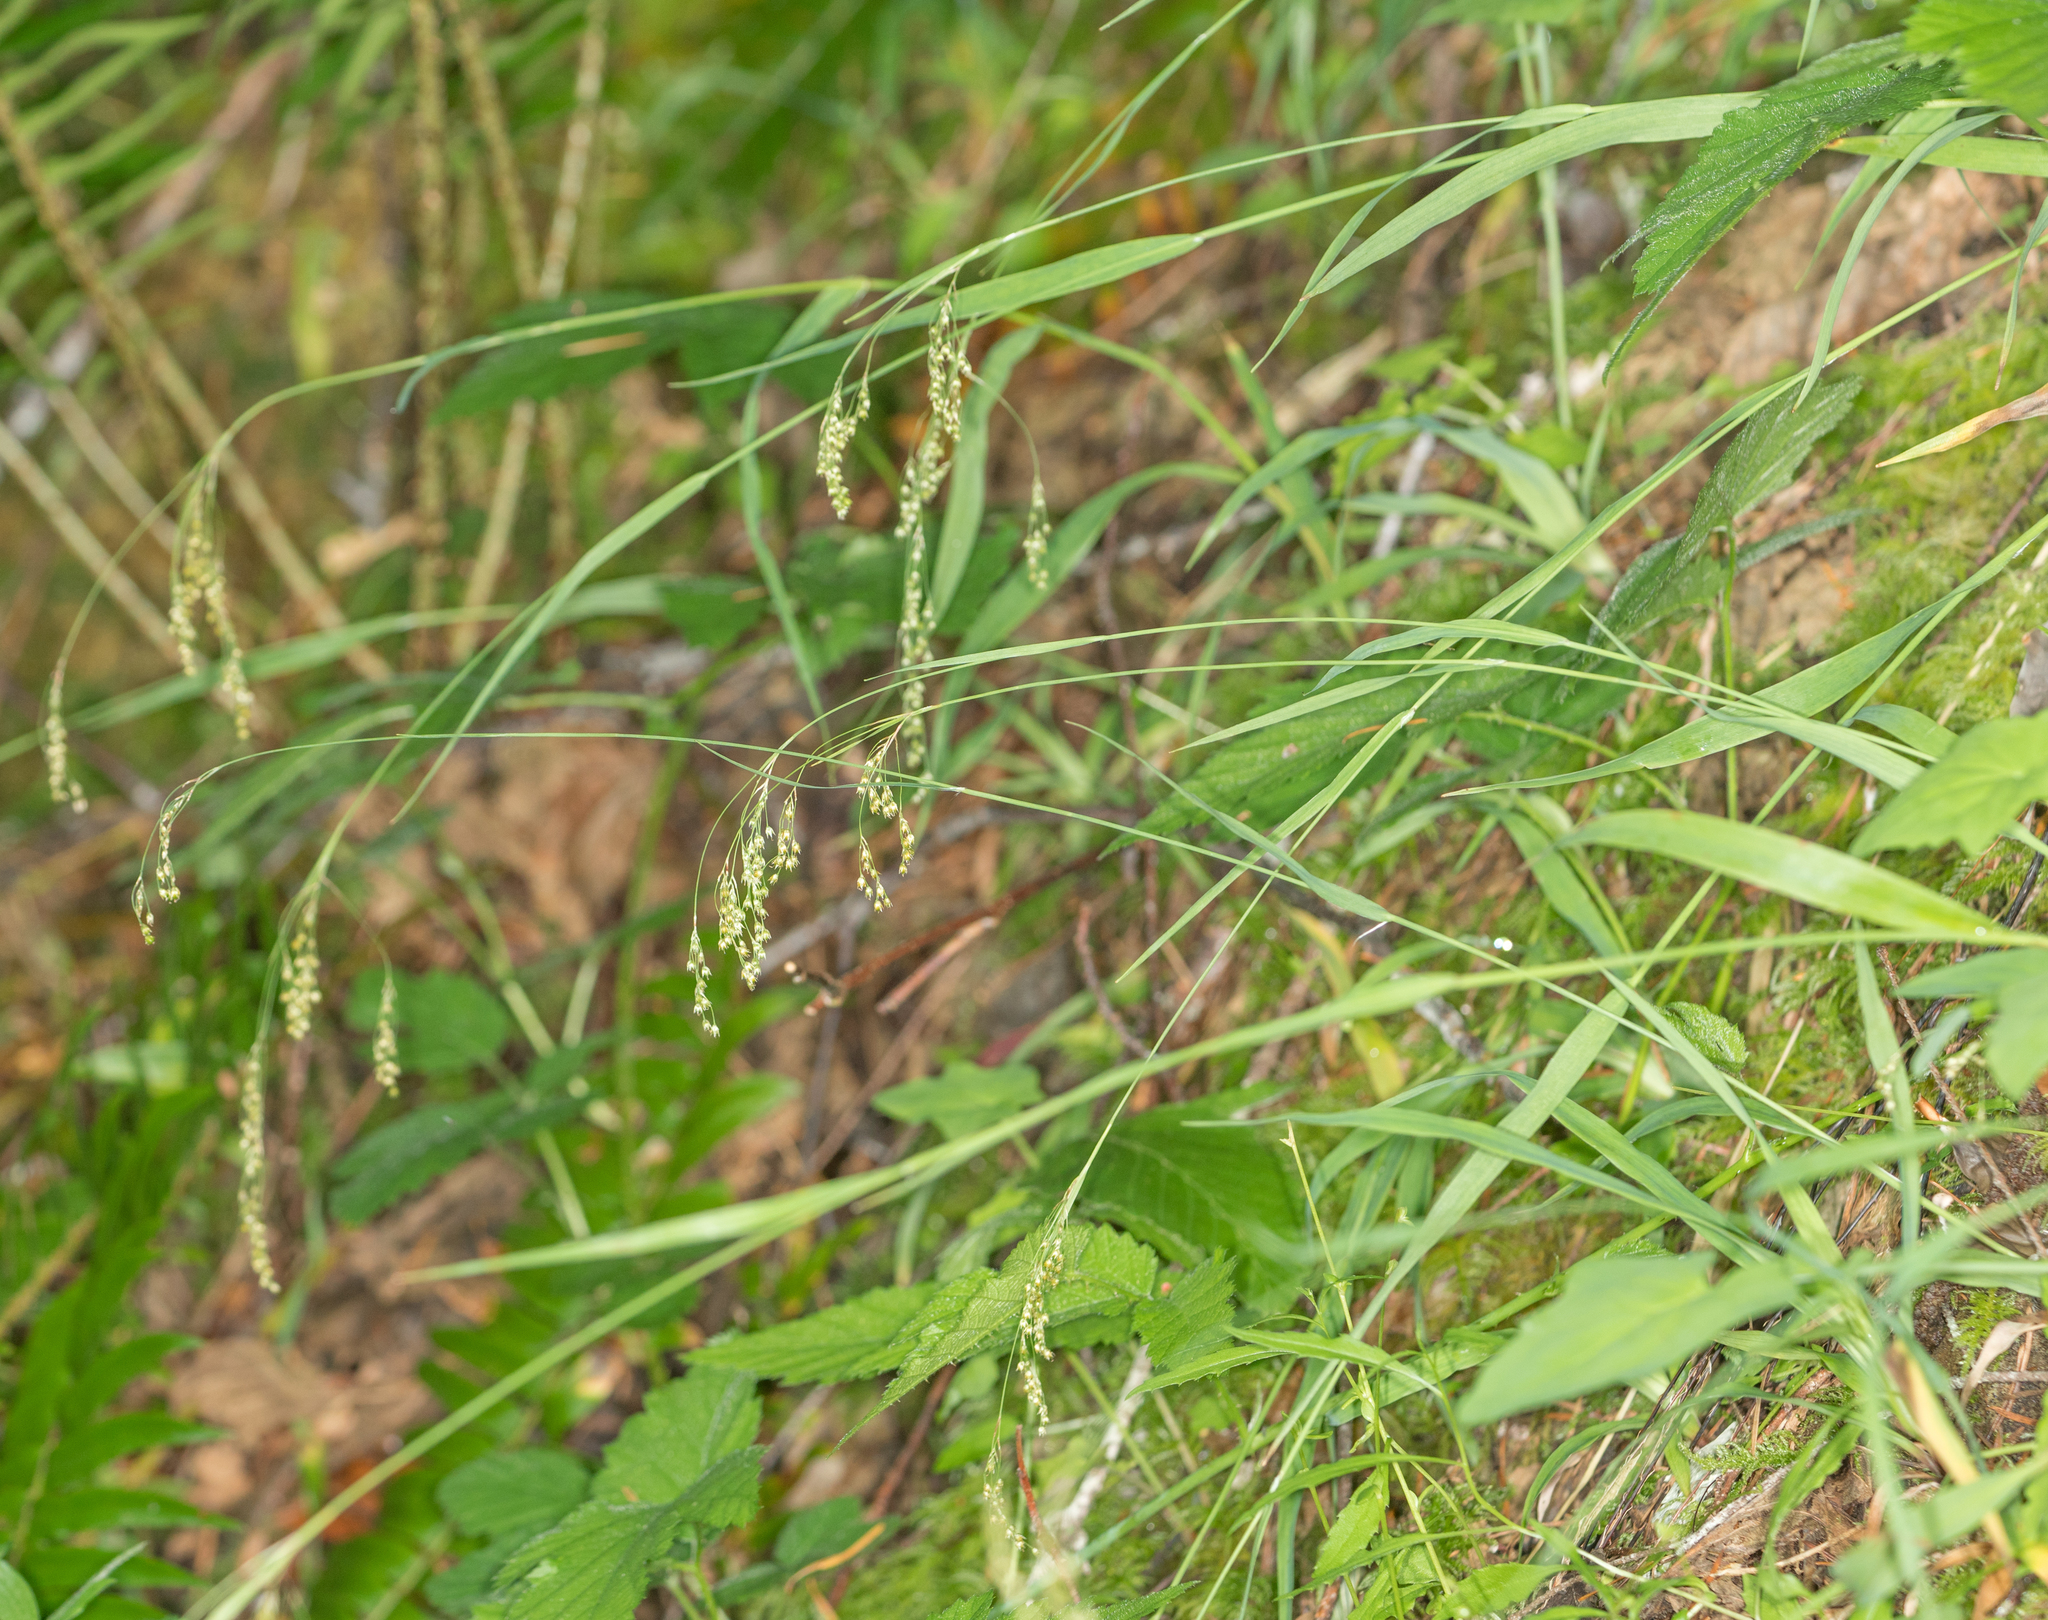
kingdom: Plantae
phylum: Tracheophyta
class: Liliopsida
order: Poales
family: Juncaceae
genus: Luzula
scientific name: Luzula parviflora
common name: Millet woodrush
